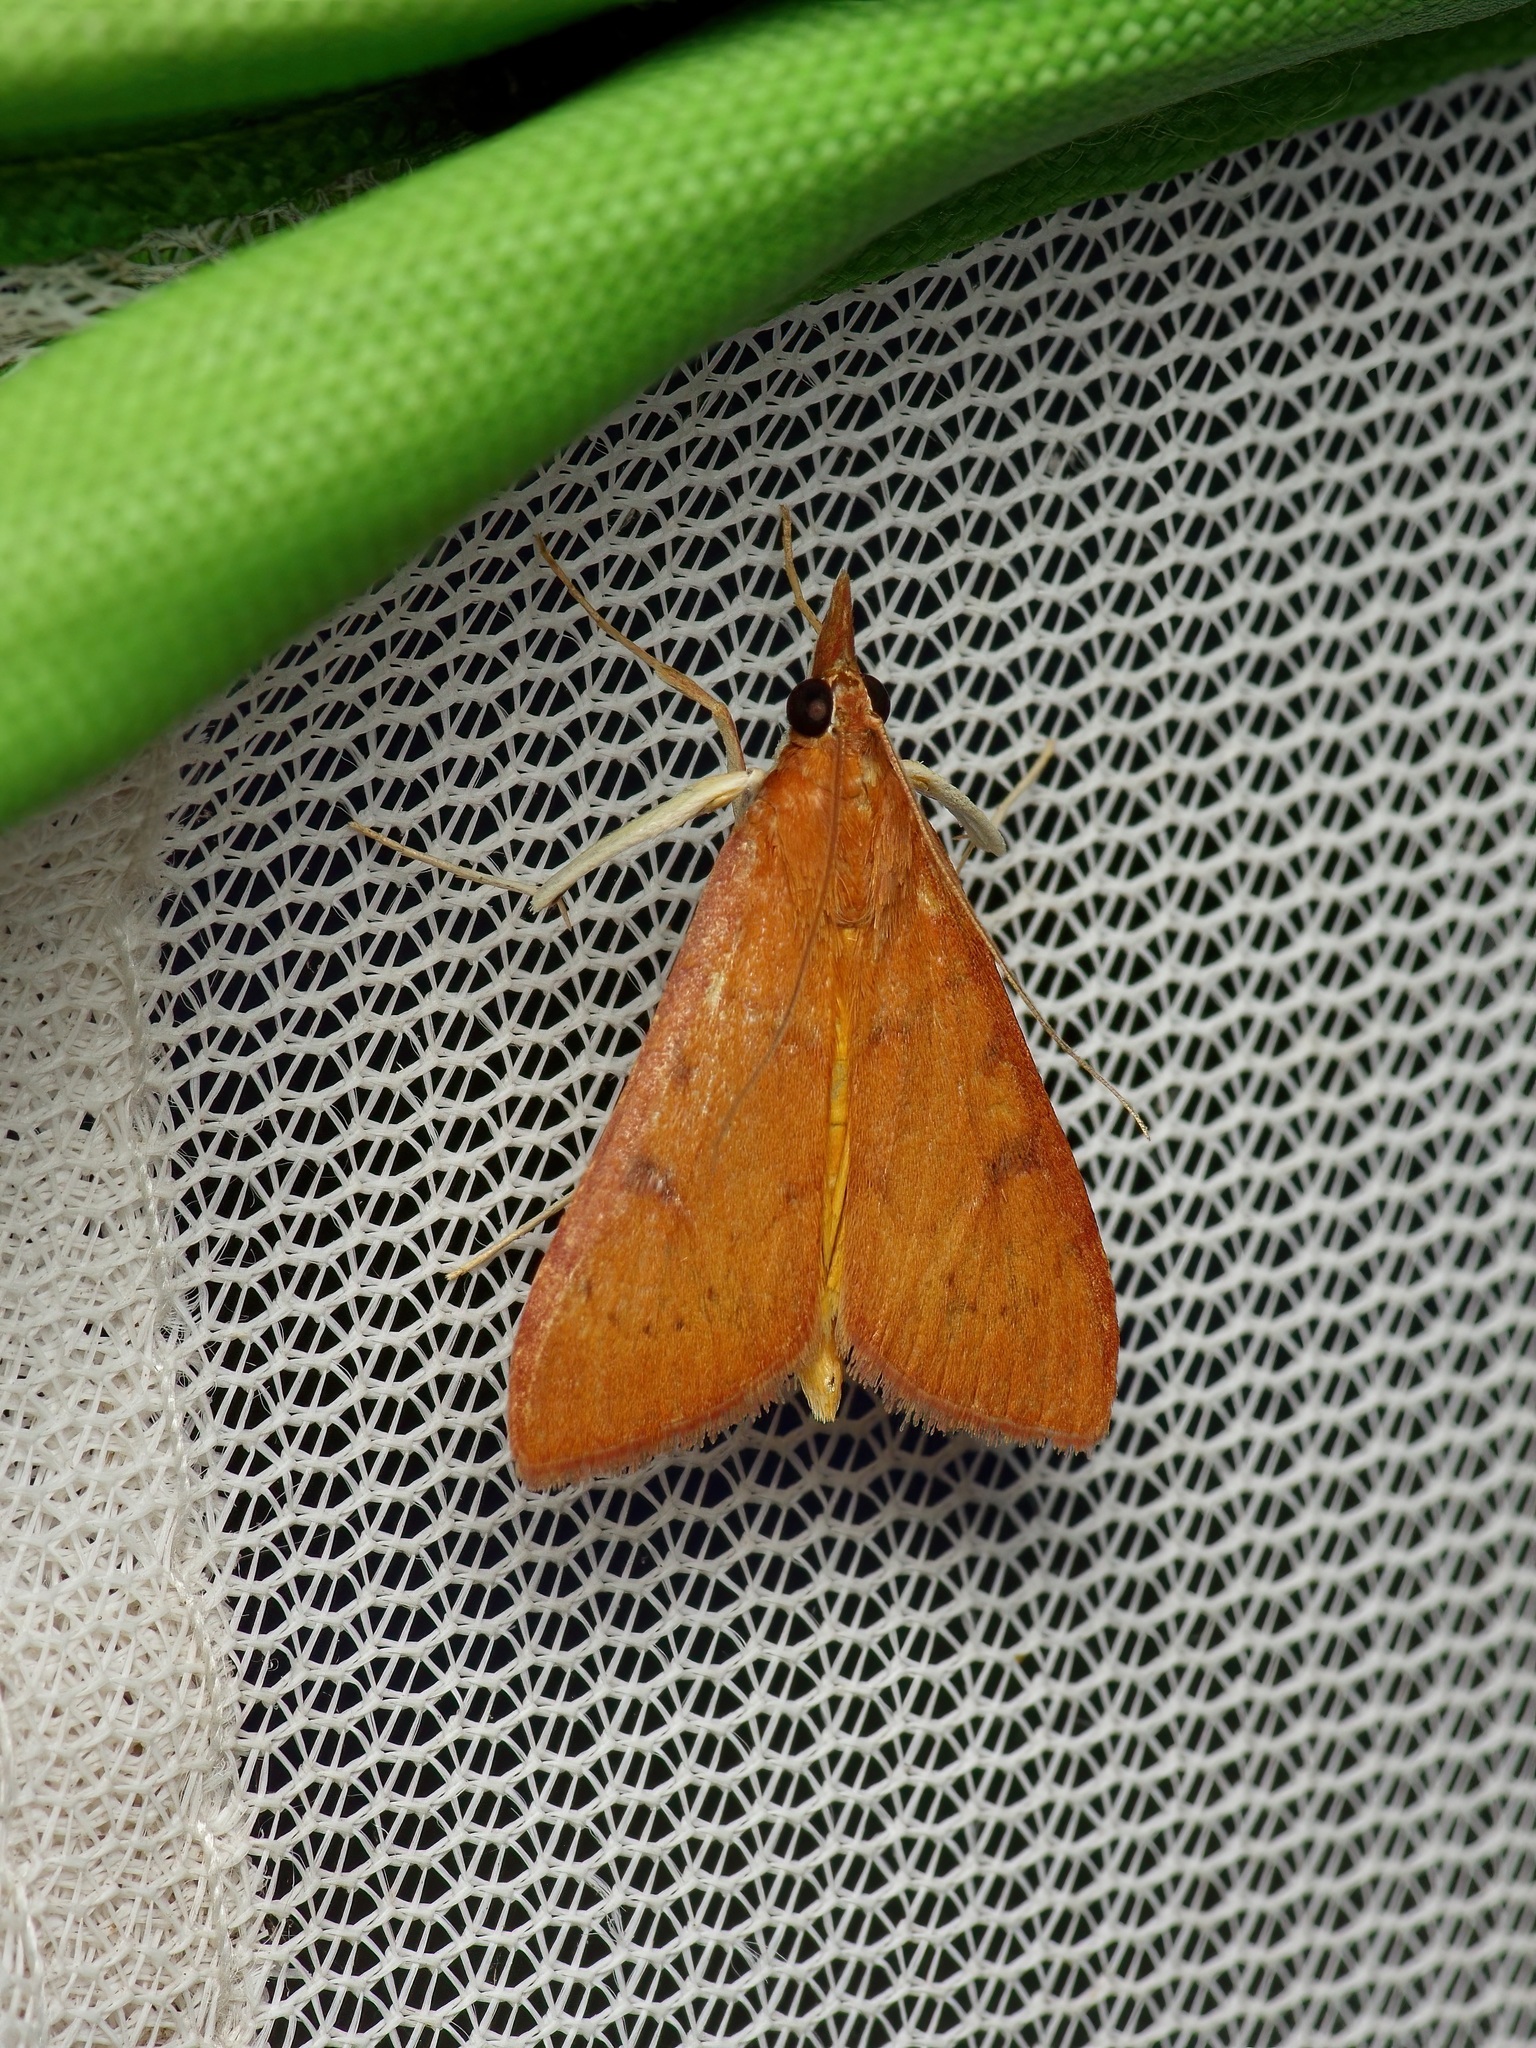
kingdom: Animalia
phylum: Arthropoda
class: Insecta
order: Lepidoptera
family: Crambidae
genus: Uresiphita
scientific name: Uresiphita reversalis
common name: Genista broom moth
